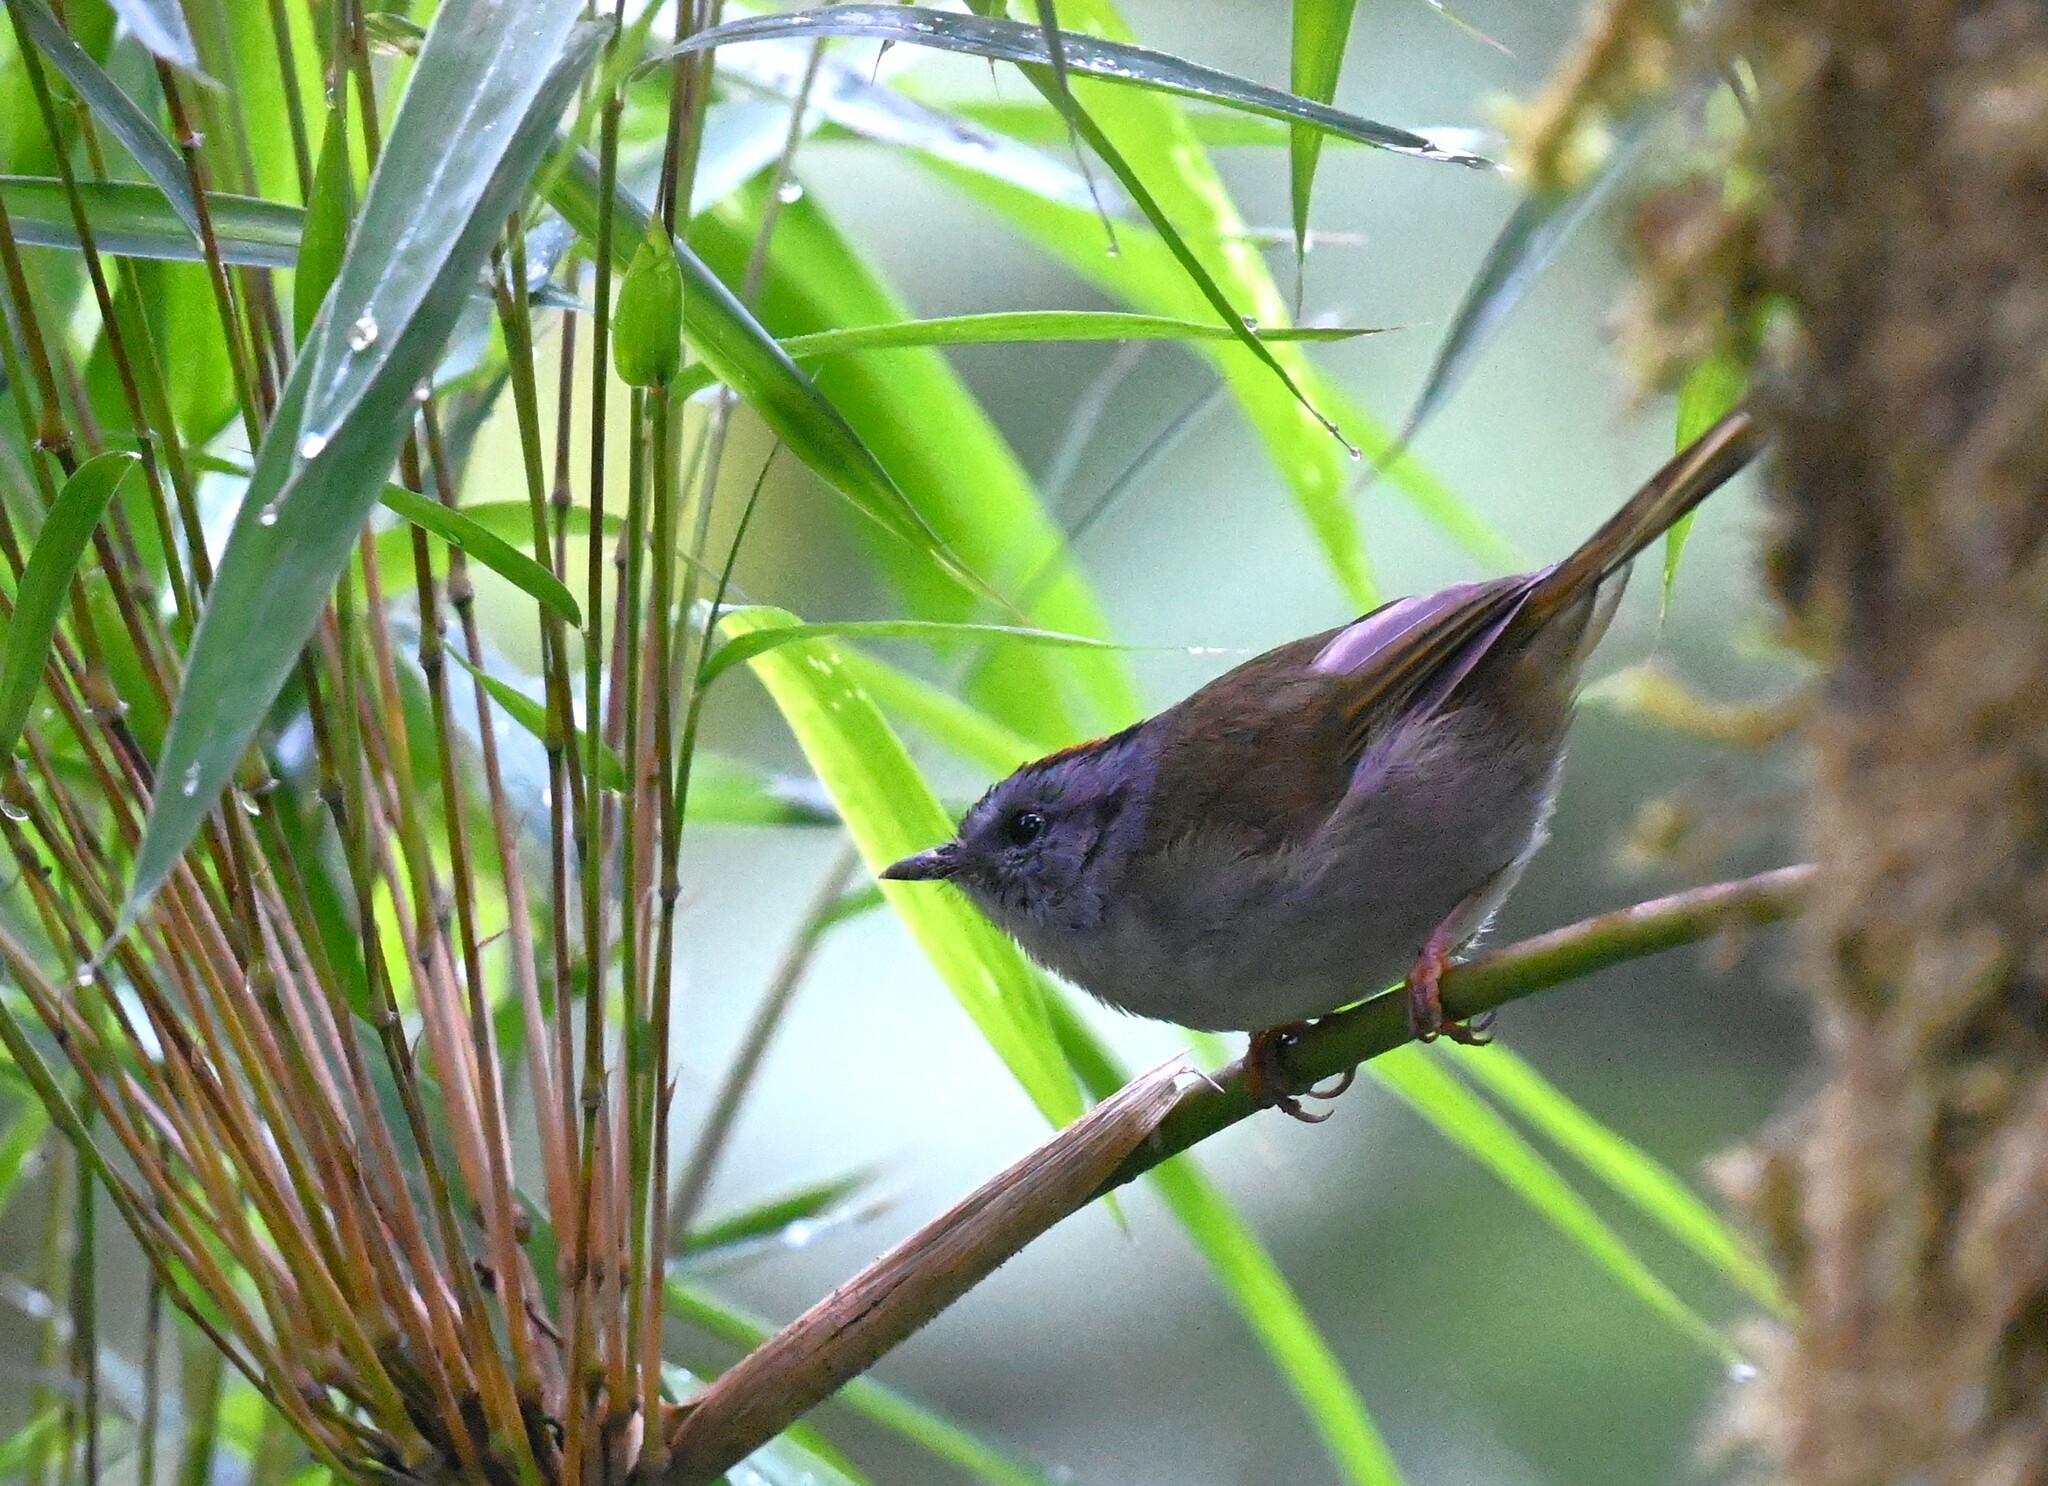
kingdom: Animalia
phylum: Chordata
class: Aves
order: Passeriformes
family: Parulidae
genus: Myiothlypis
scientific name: Myiothlypis coronata
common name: Russet-crowned warbler
